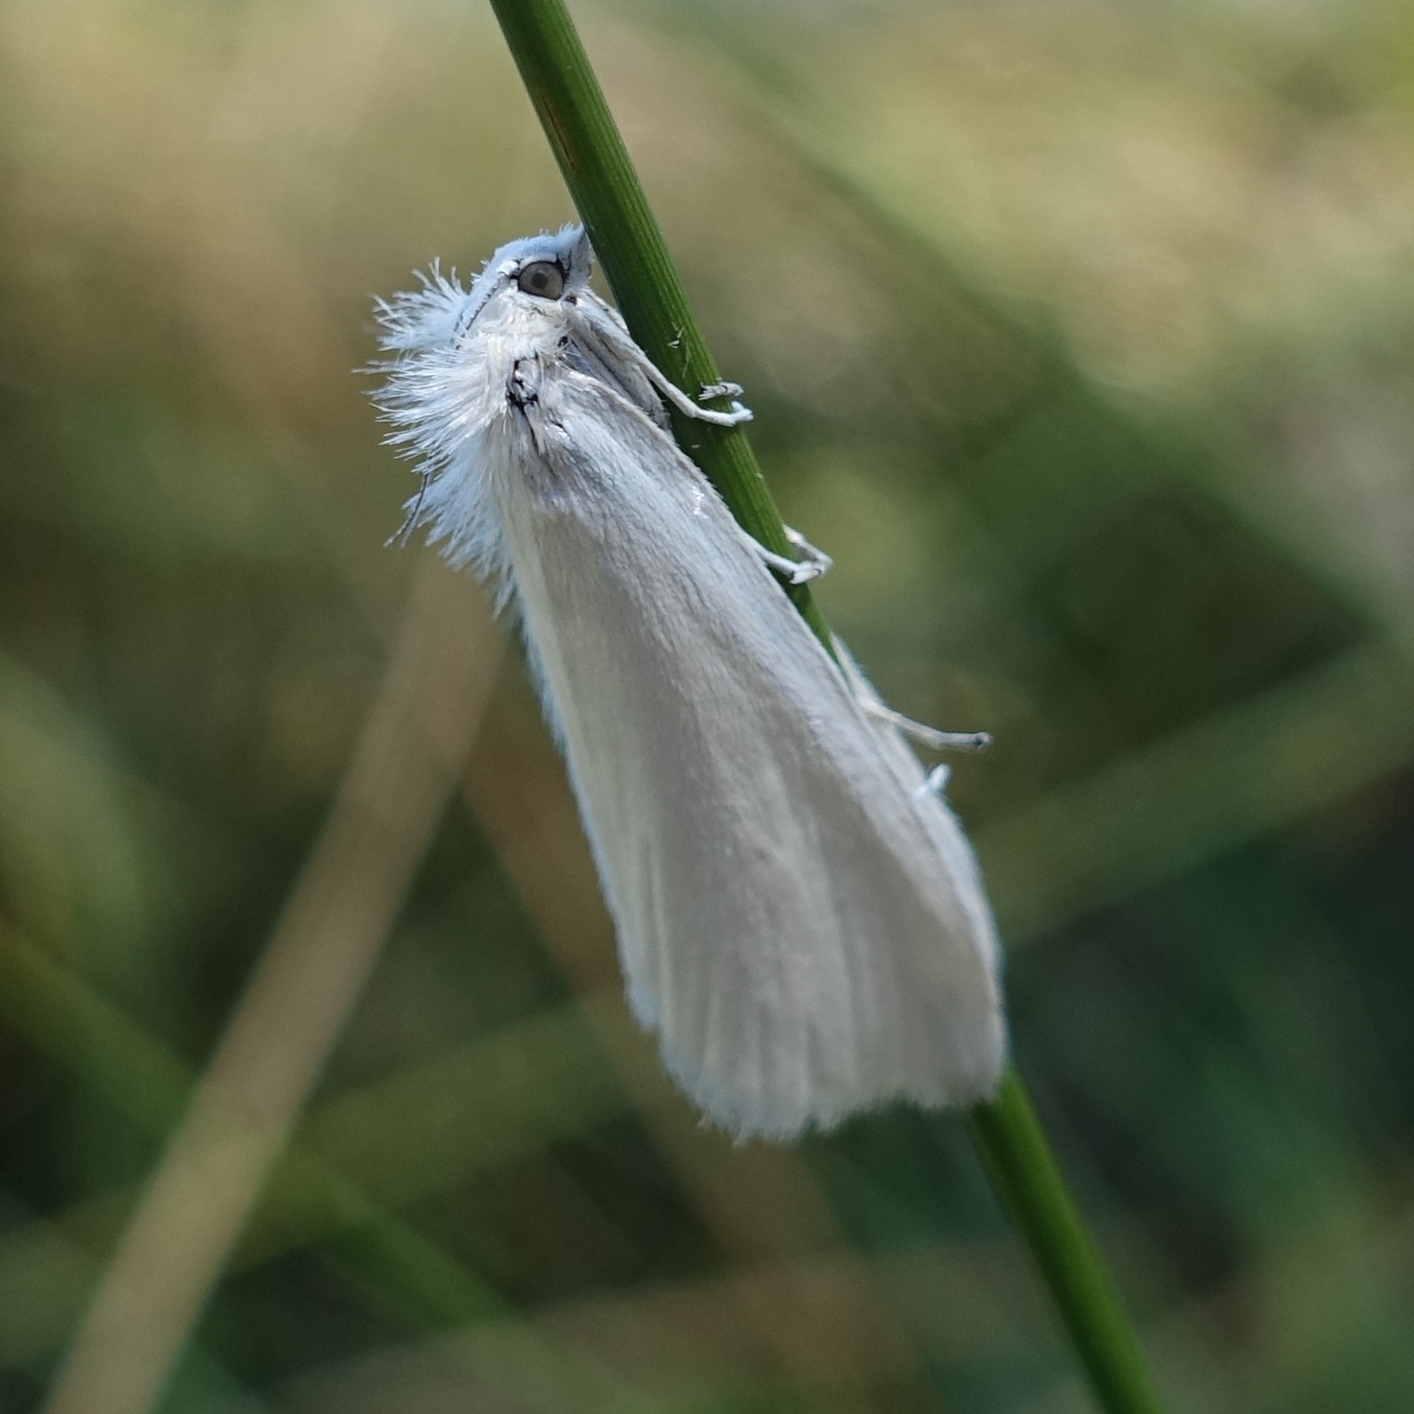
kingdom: Animalia
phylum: Arthropoda
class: Insecta
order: Lepidoptera
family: Crambidae
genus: Tipanaea
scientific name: Tipanaea patulella
